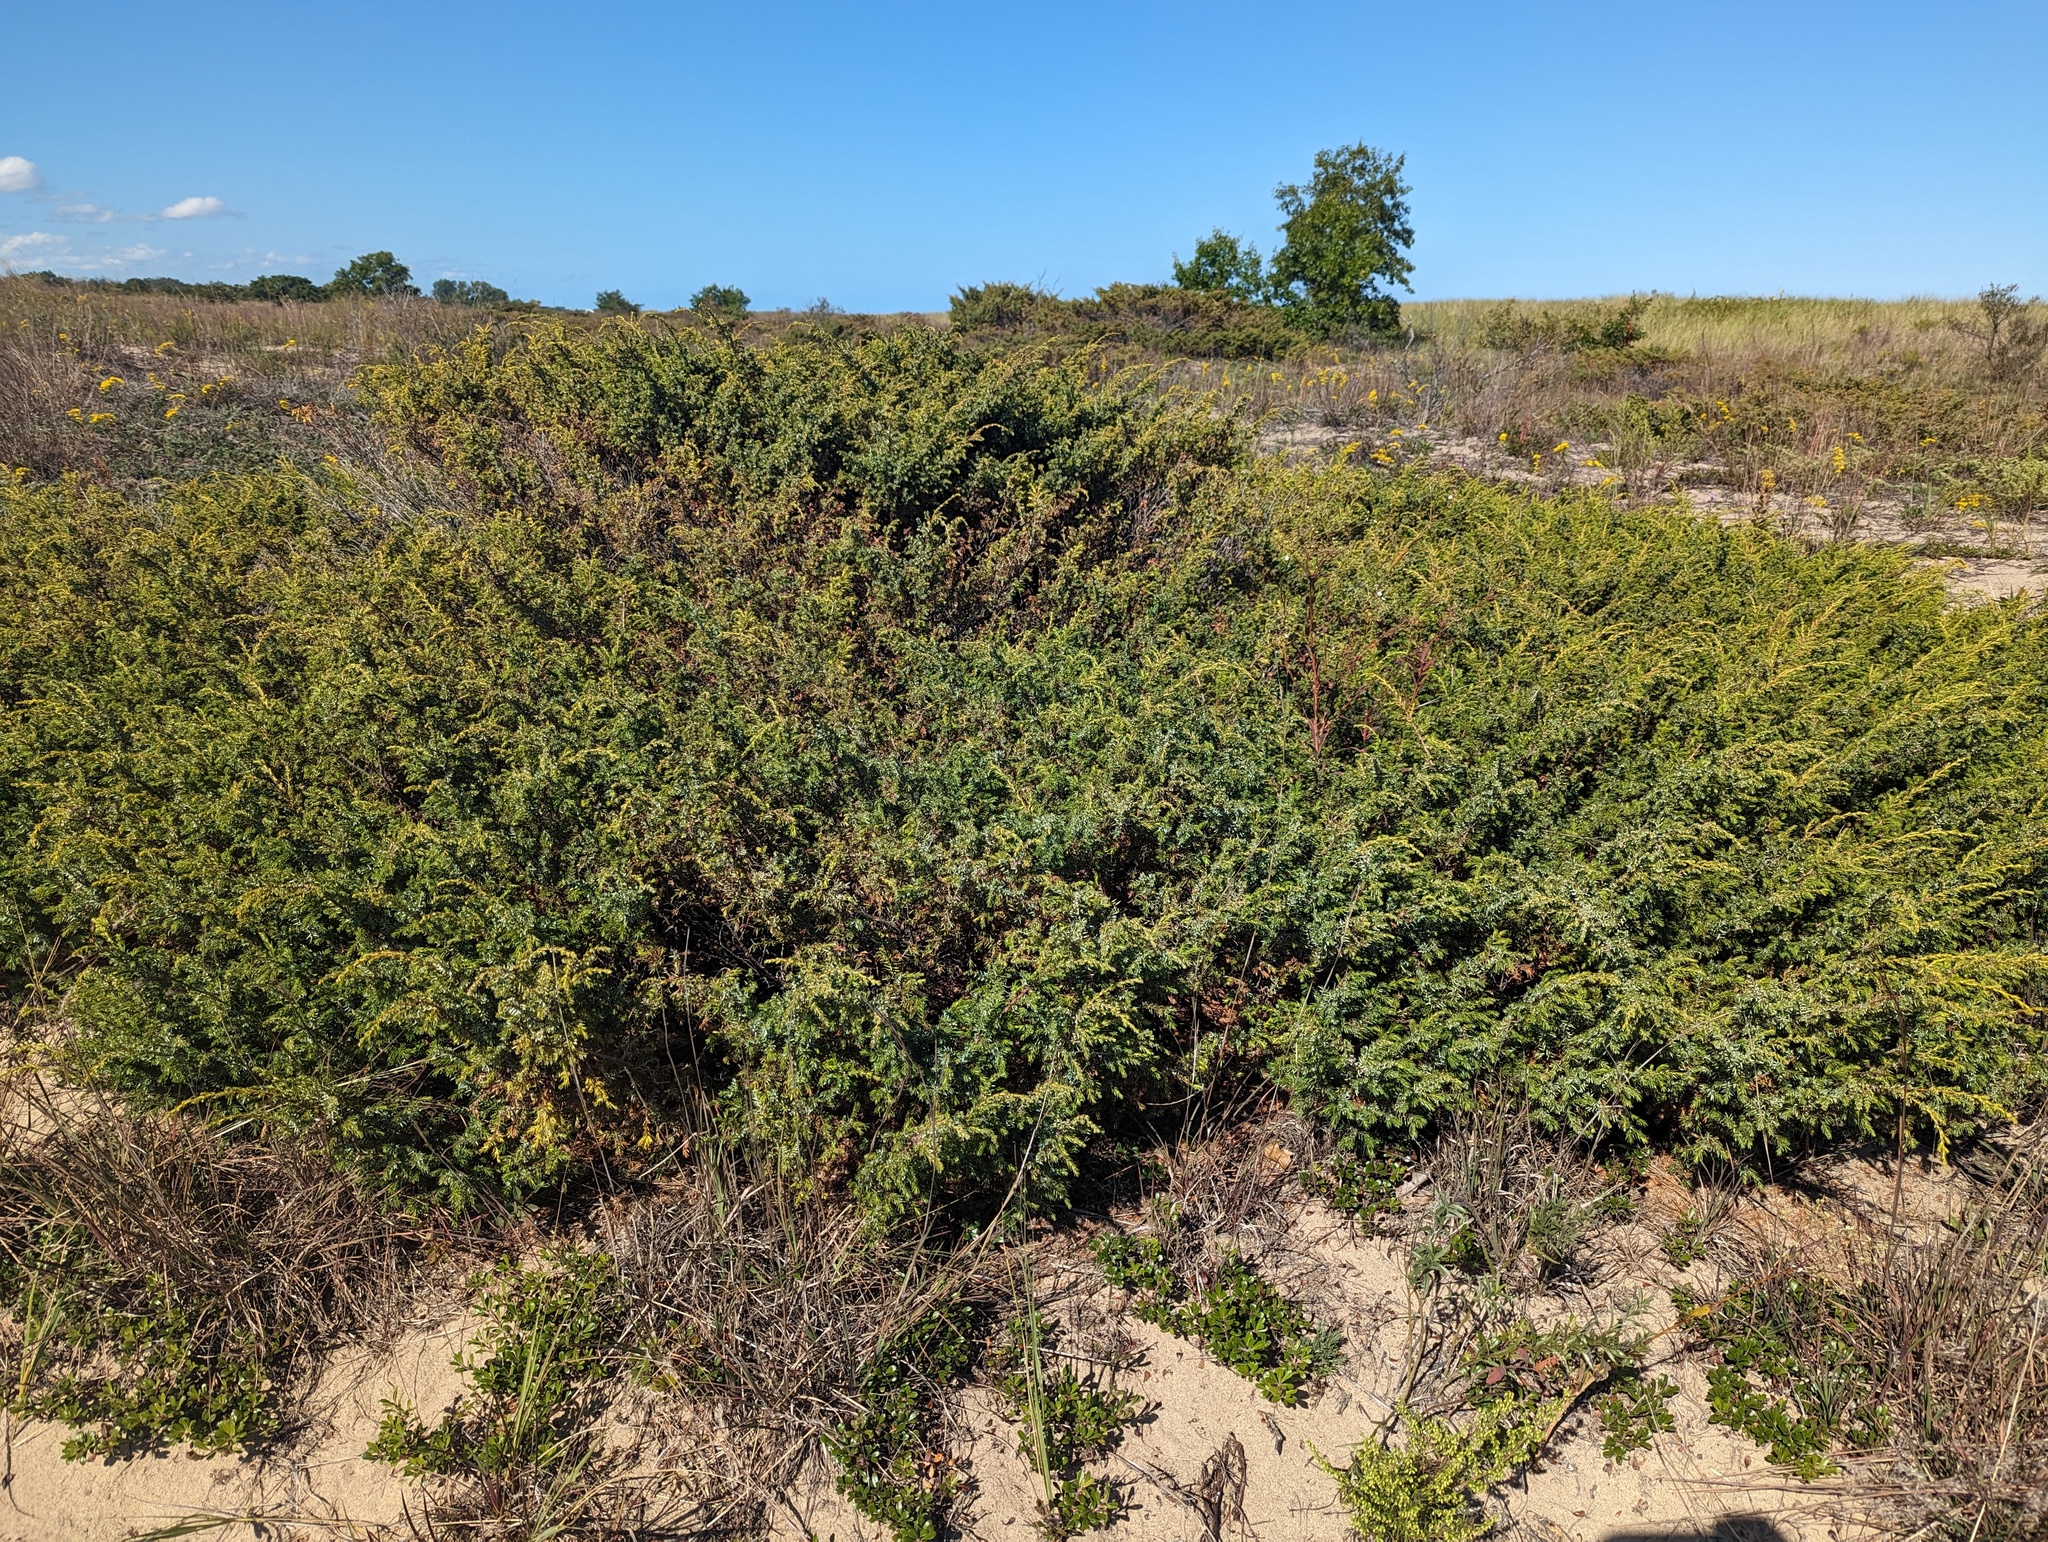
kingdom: Plantae
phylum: Tracheophyta
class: Pinopsida
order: Pinales
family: Cupressaceae
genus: Juniperus
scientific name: Juniperus communis
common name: Common juniper
